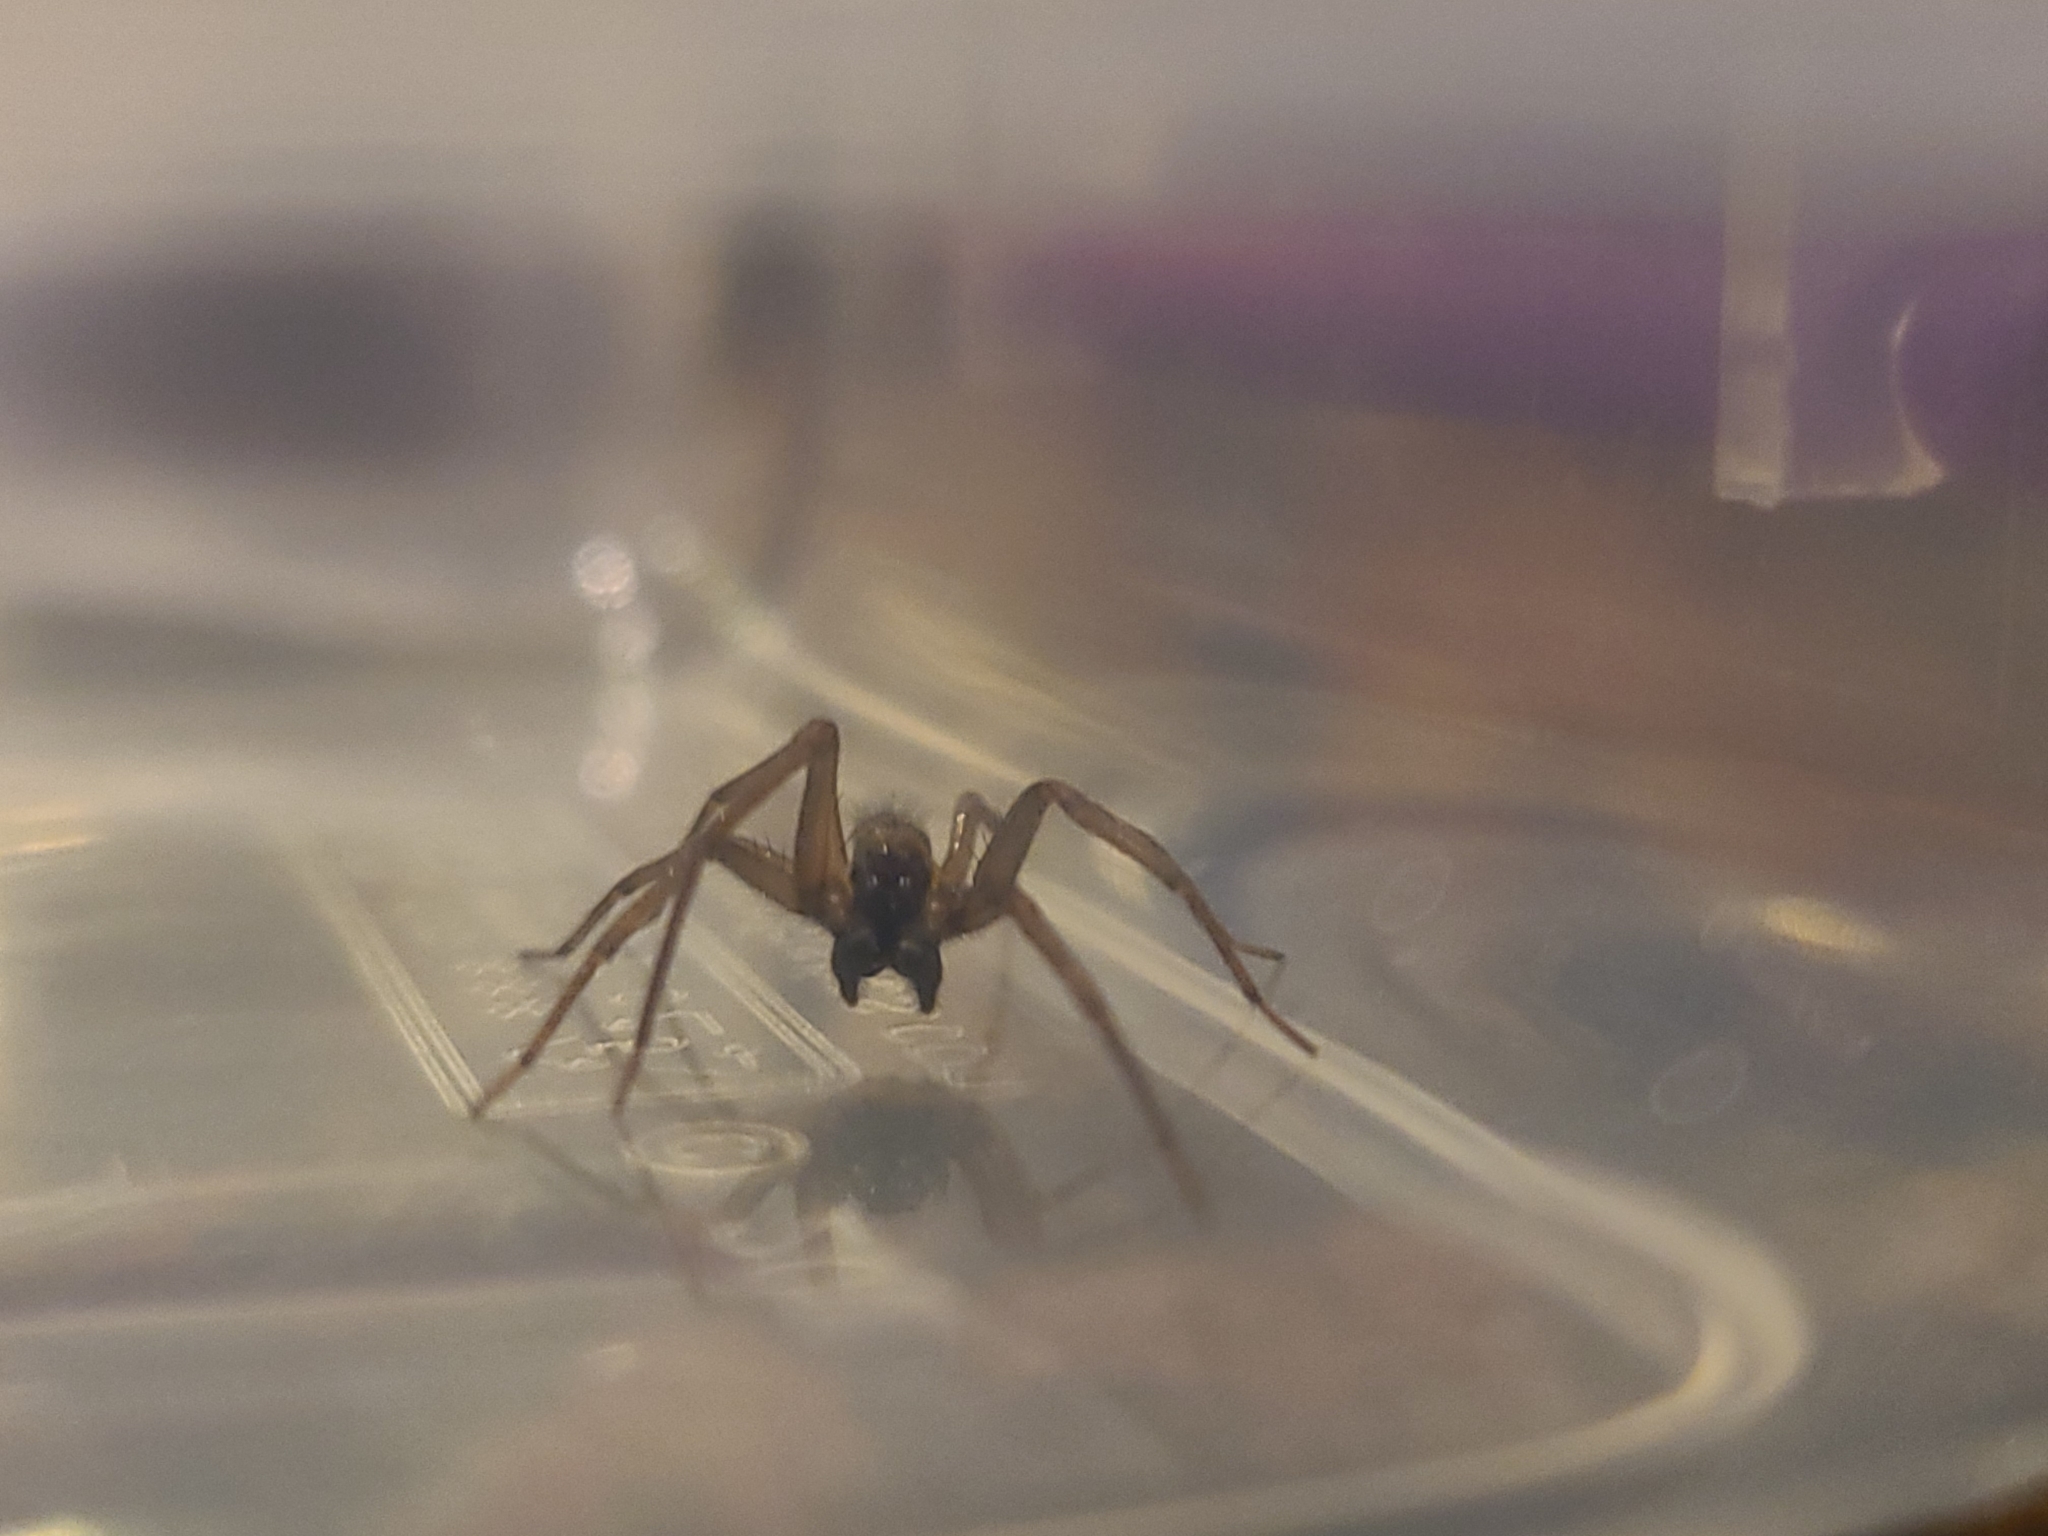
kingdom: Animalia
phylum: Arthropoda
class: Arachnida
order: Araneae
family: Desidae
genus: Metaltella
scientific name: Metaltella simoni
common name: Cribellate spider
